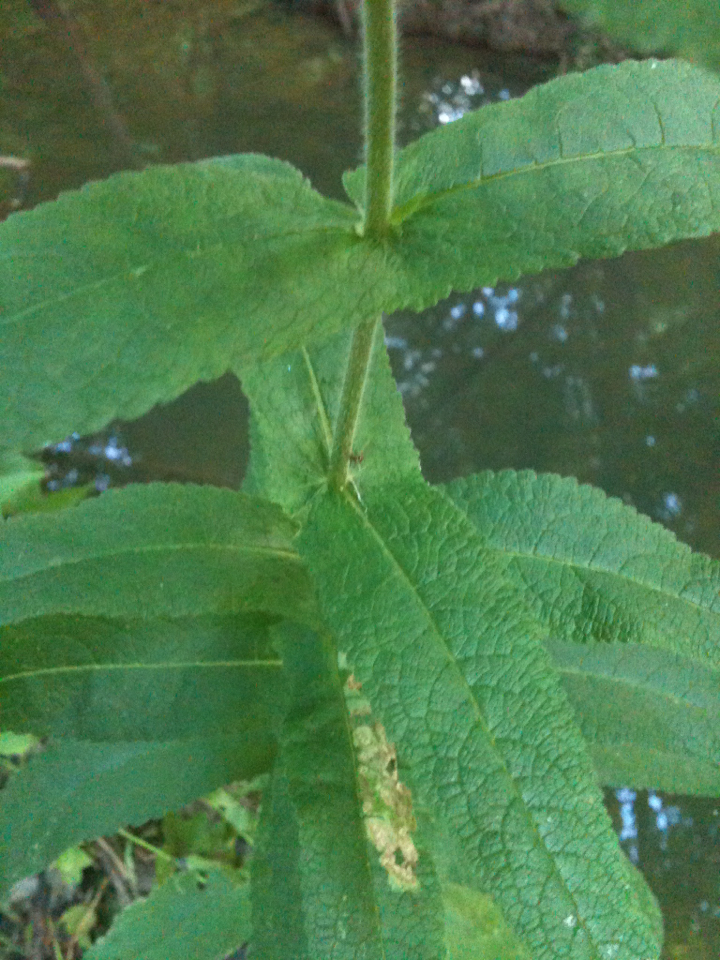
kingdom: Plantae
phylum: Tracheophyta
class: Magnoliopsida
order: Asterales
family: Asteraceae
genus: Eupatorium
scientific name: Eupatorium perfoliatum
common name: Boneset
